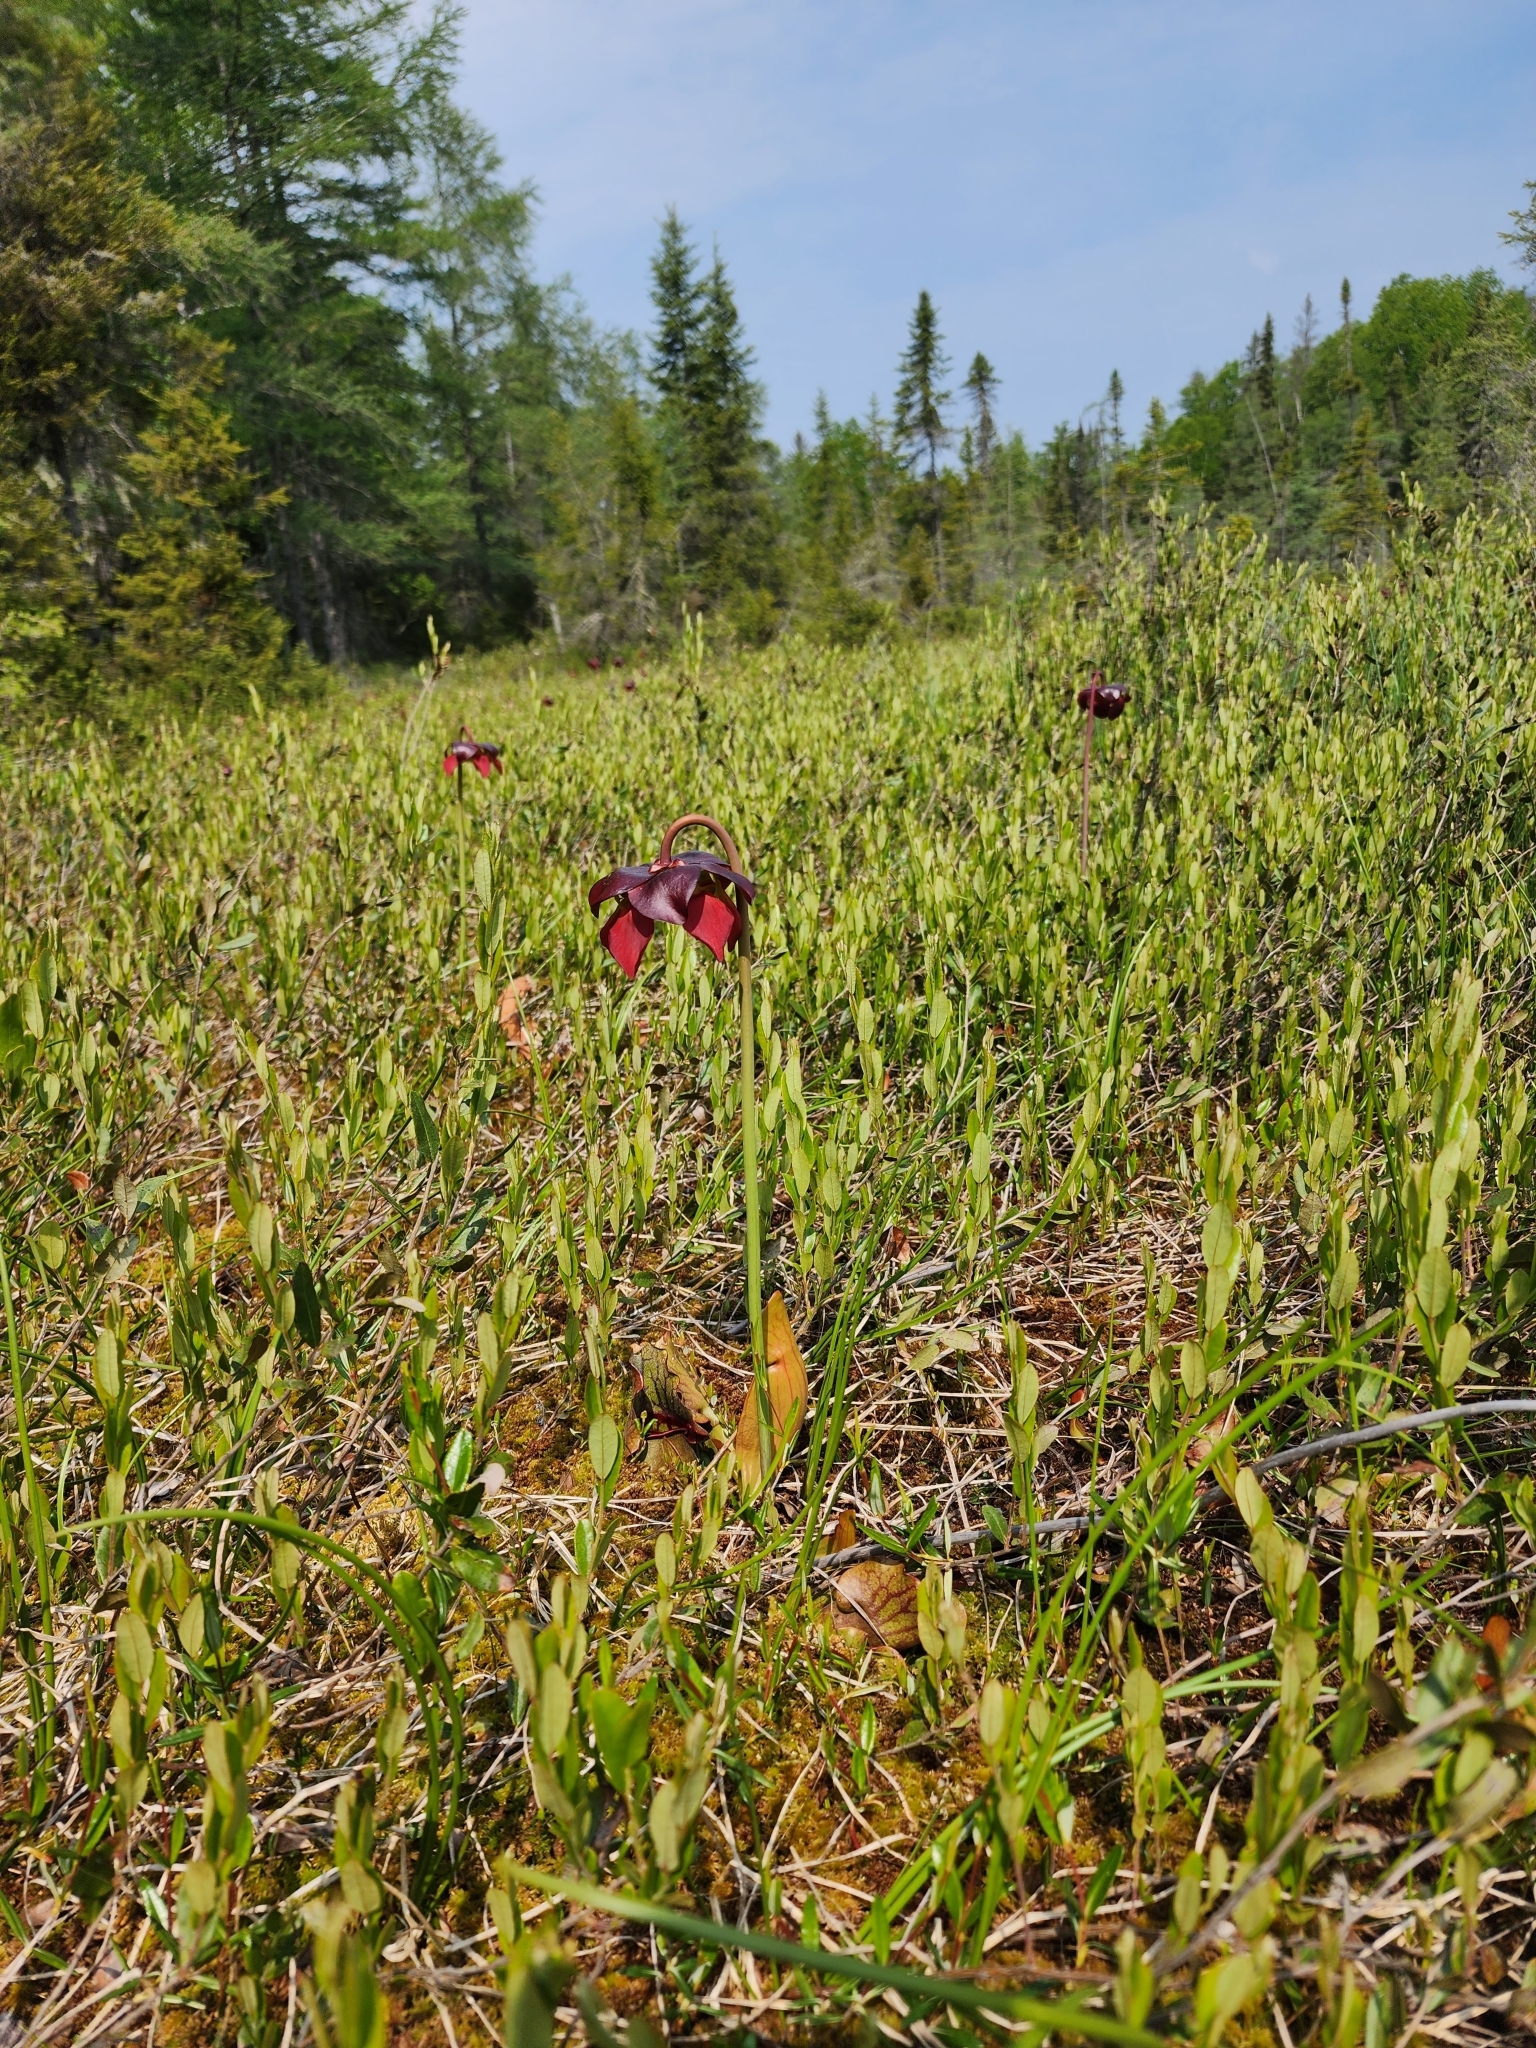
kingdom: Plantae
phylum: Tracheophyta
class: Magnoliopsida
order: Ericales
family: Sarraceniaceae
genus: Sarracenia
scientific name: Sarracenia purpurea
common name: Pitcherplant
